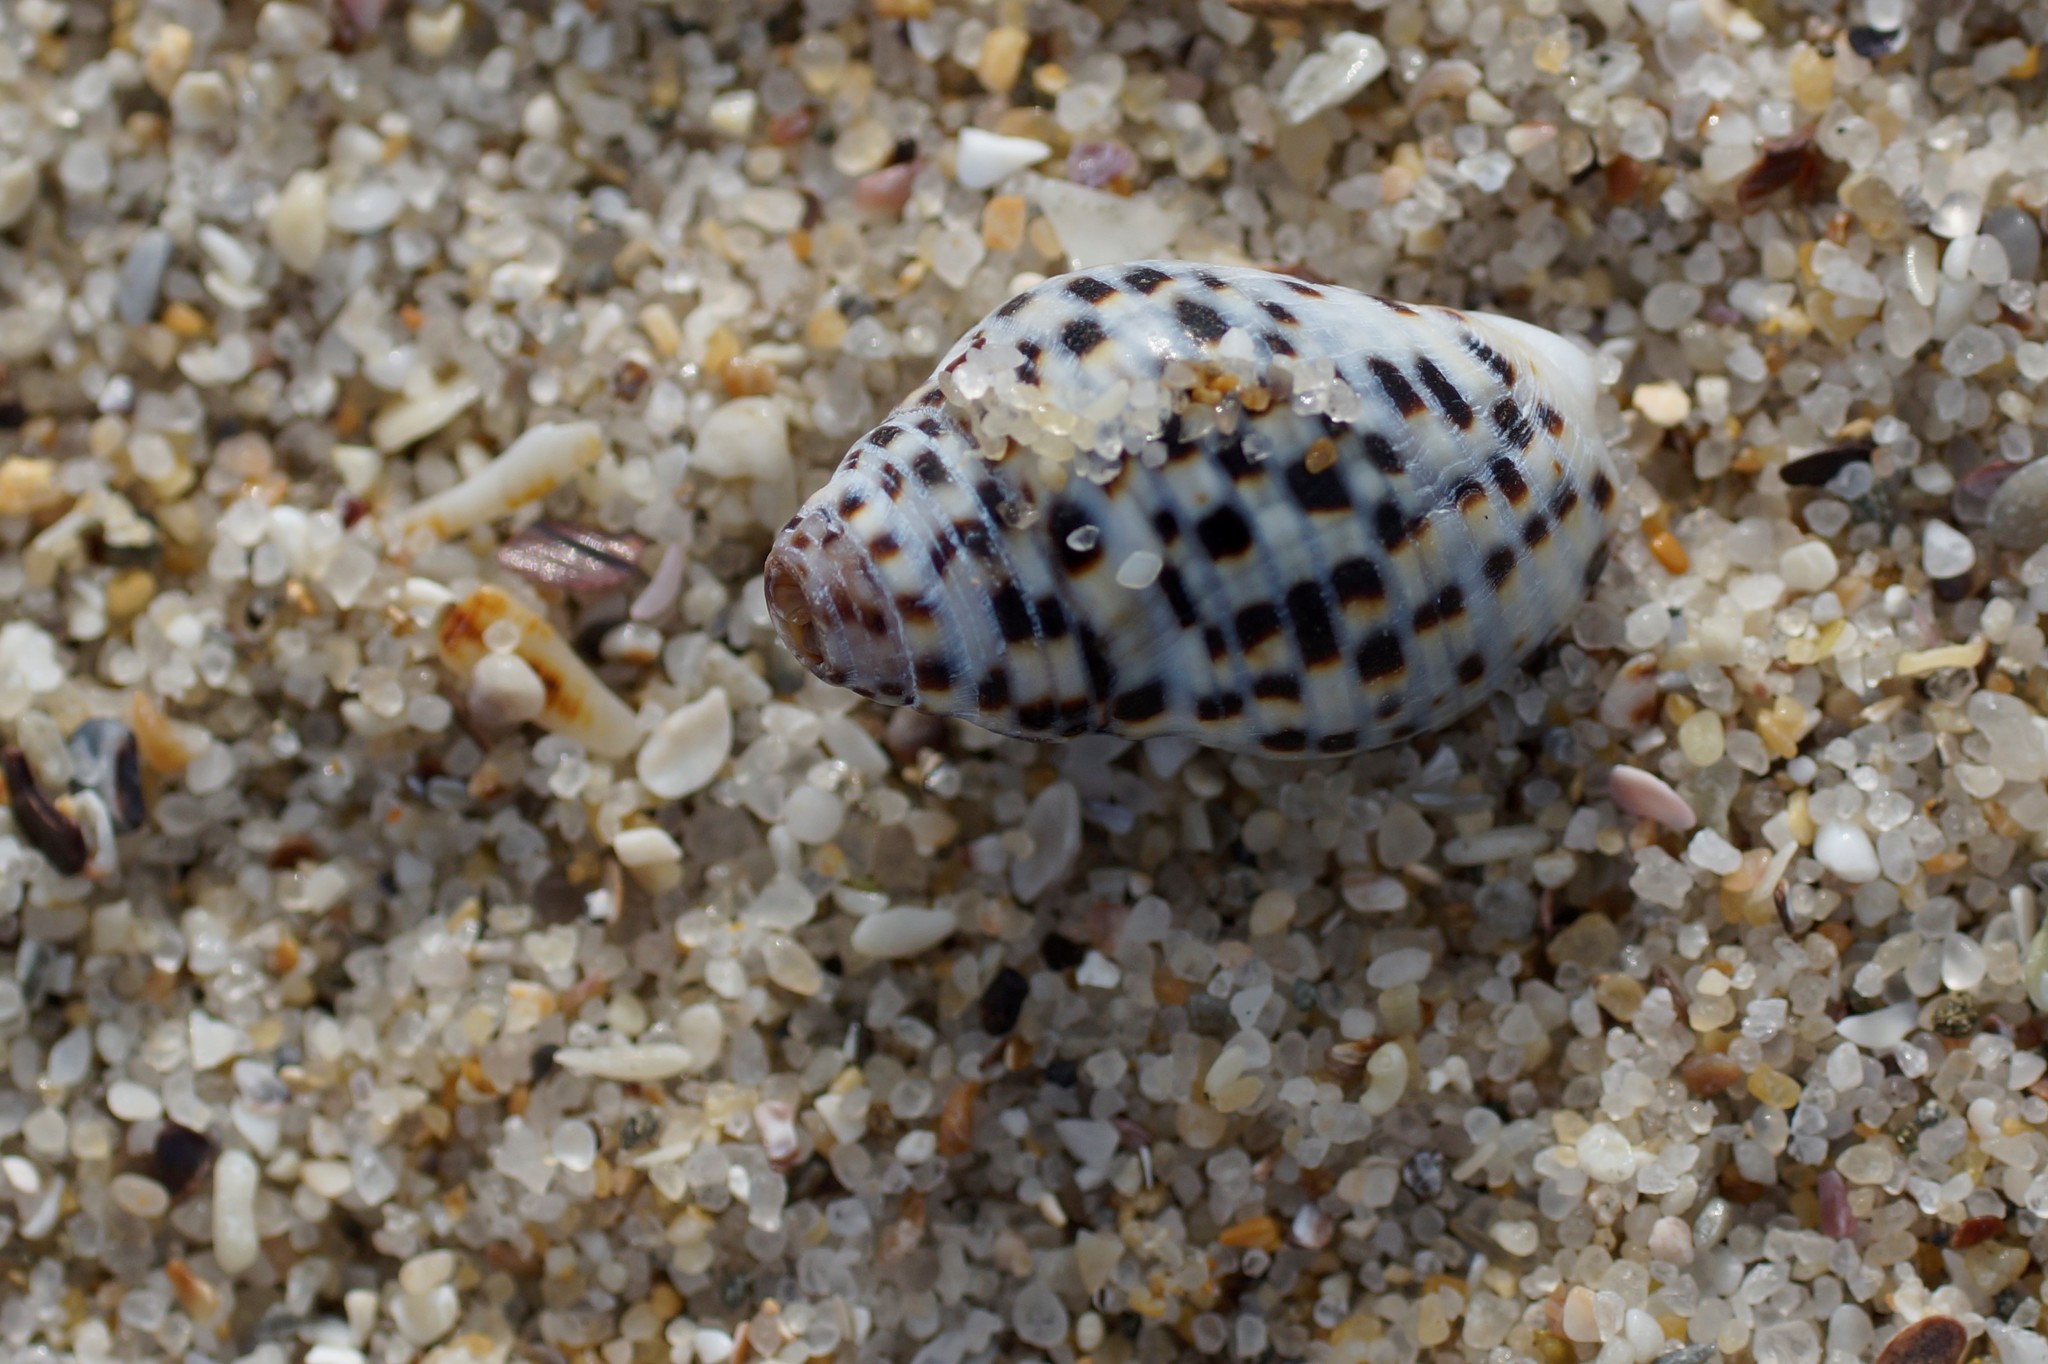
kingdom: Animalia
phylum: Mollusca
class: Gastropoda
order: Neogastropoda
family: Cominellidae
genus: Cominella
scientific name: Cominella lineolata
